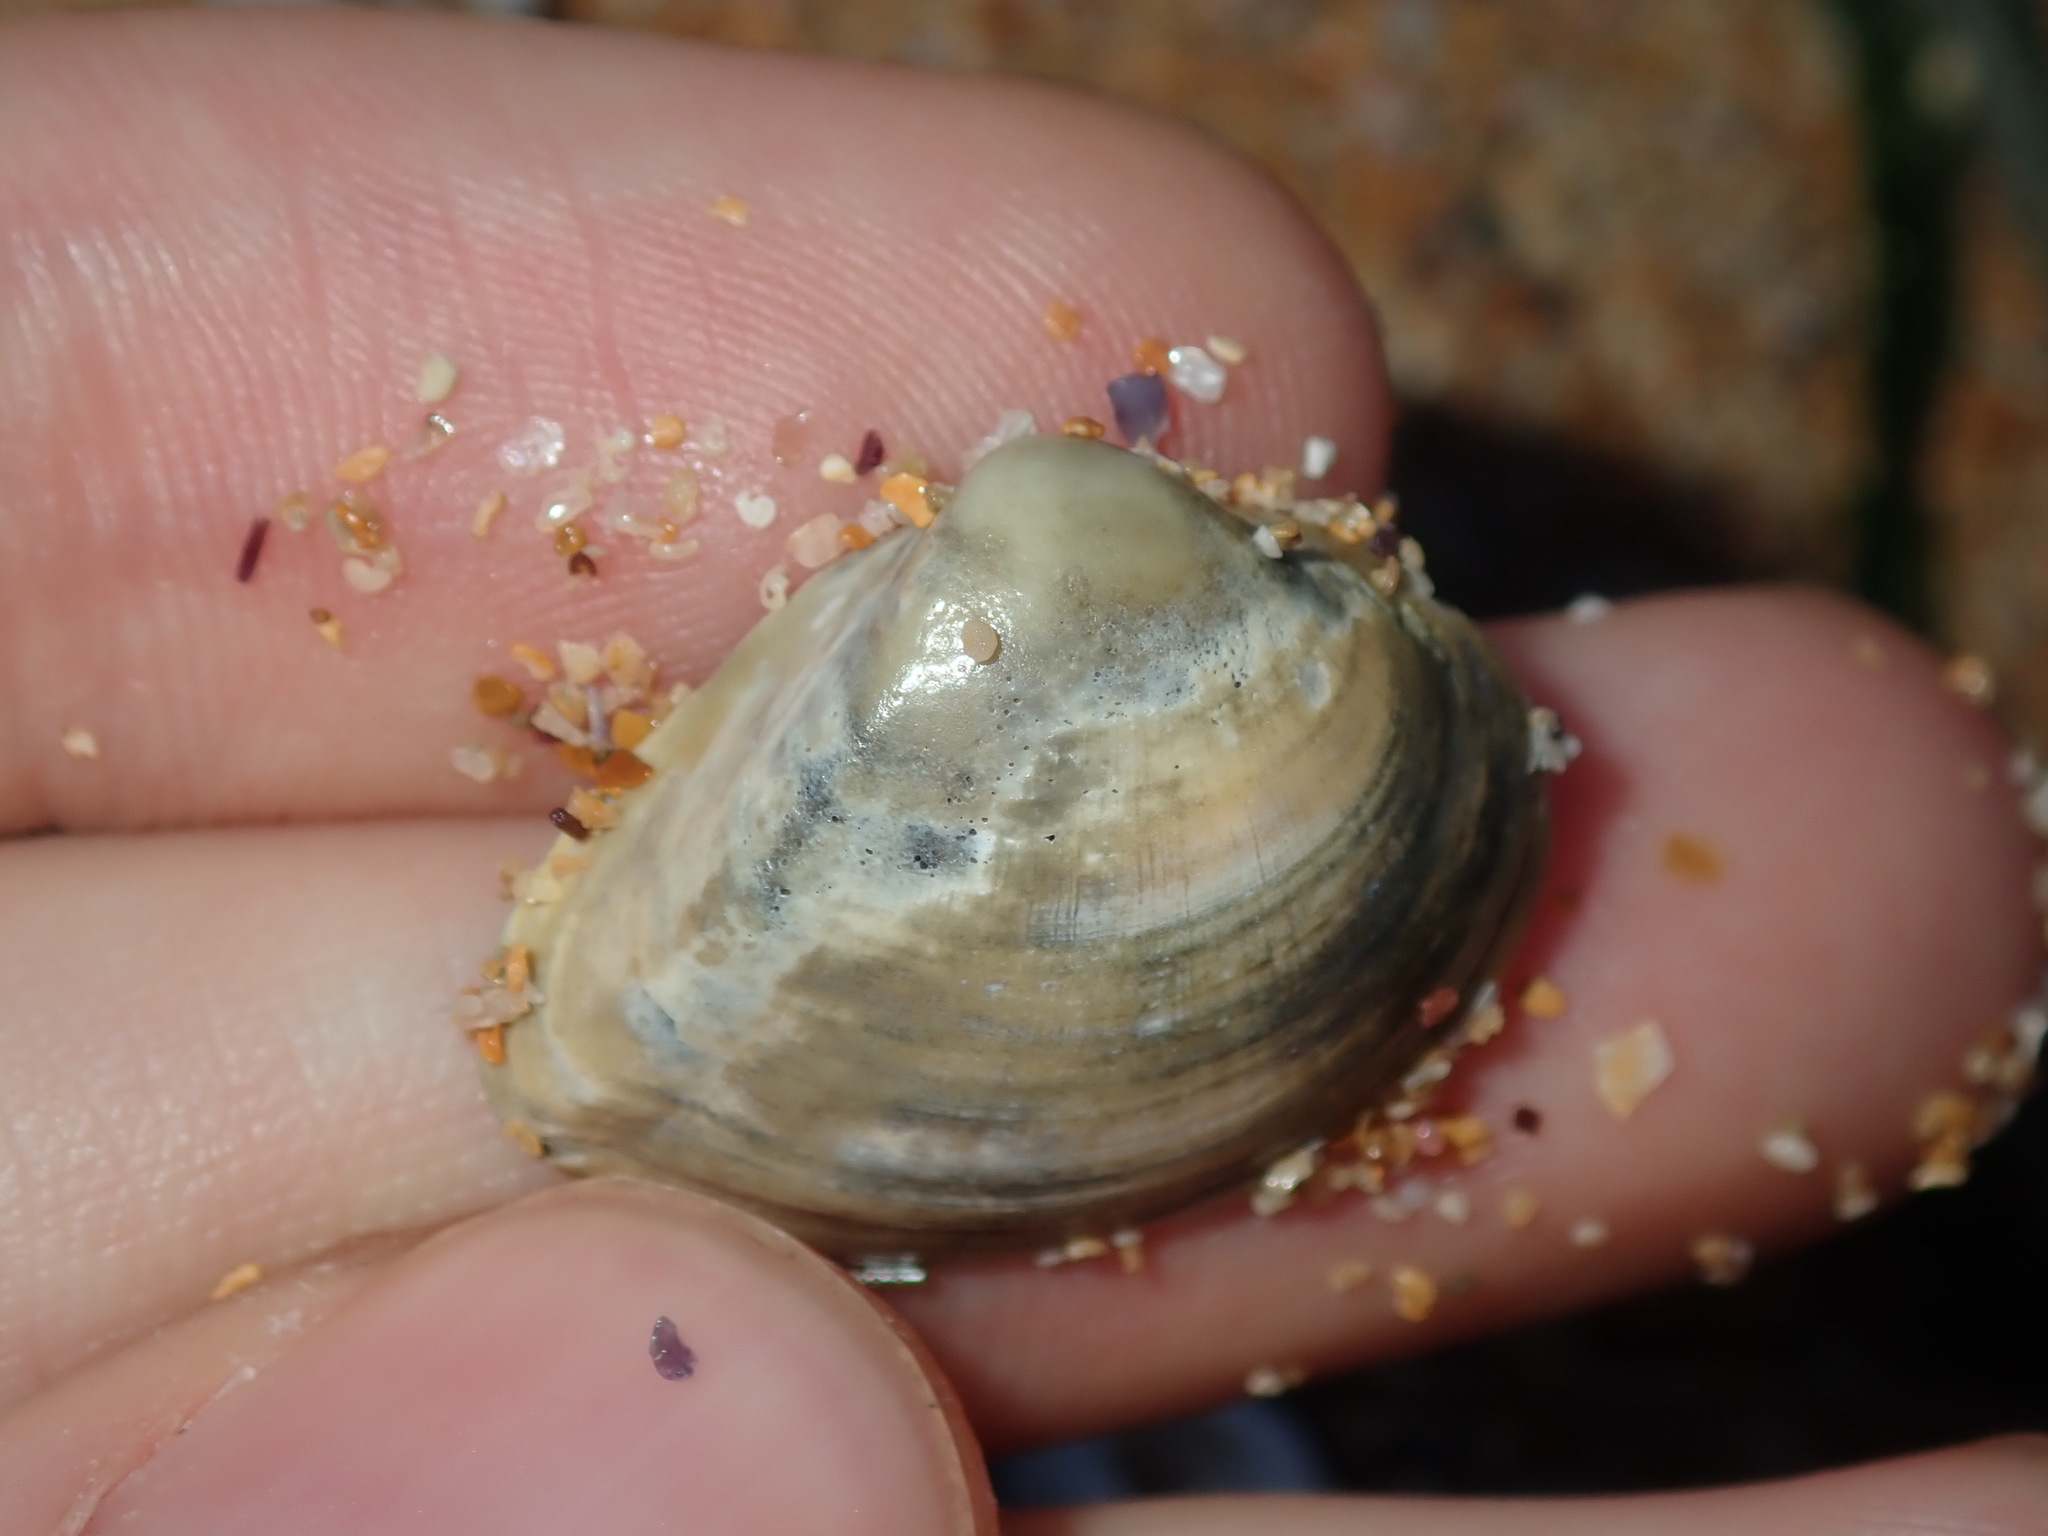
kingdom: Animalia
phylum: Mollusca
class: Bivalvia
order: Venerida
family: Mactridae
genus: Spisula
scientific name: Spisula trigonella
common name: Trigonal mactra
